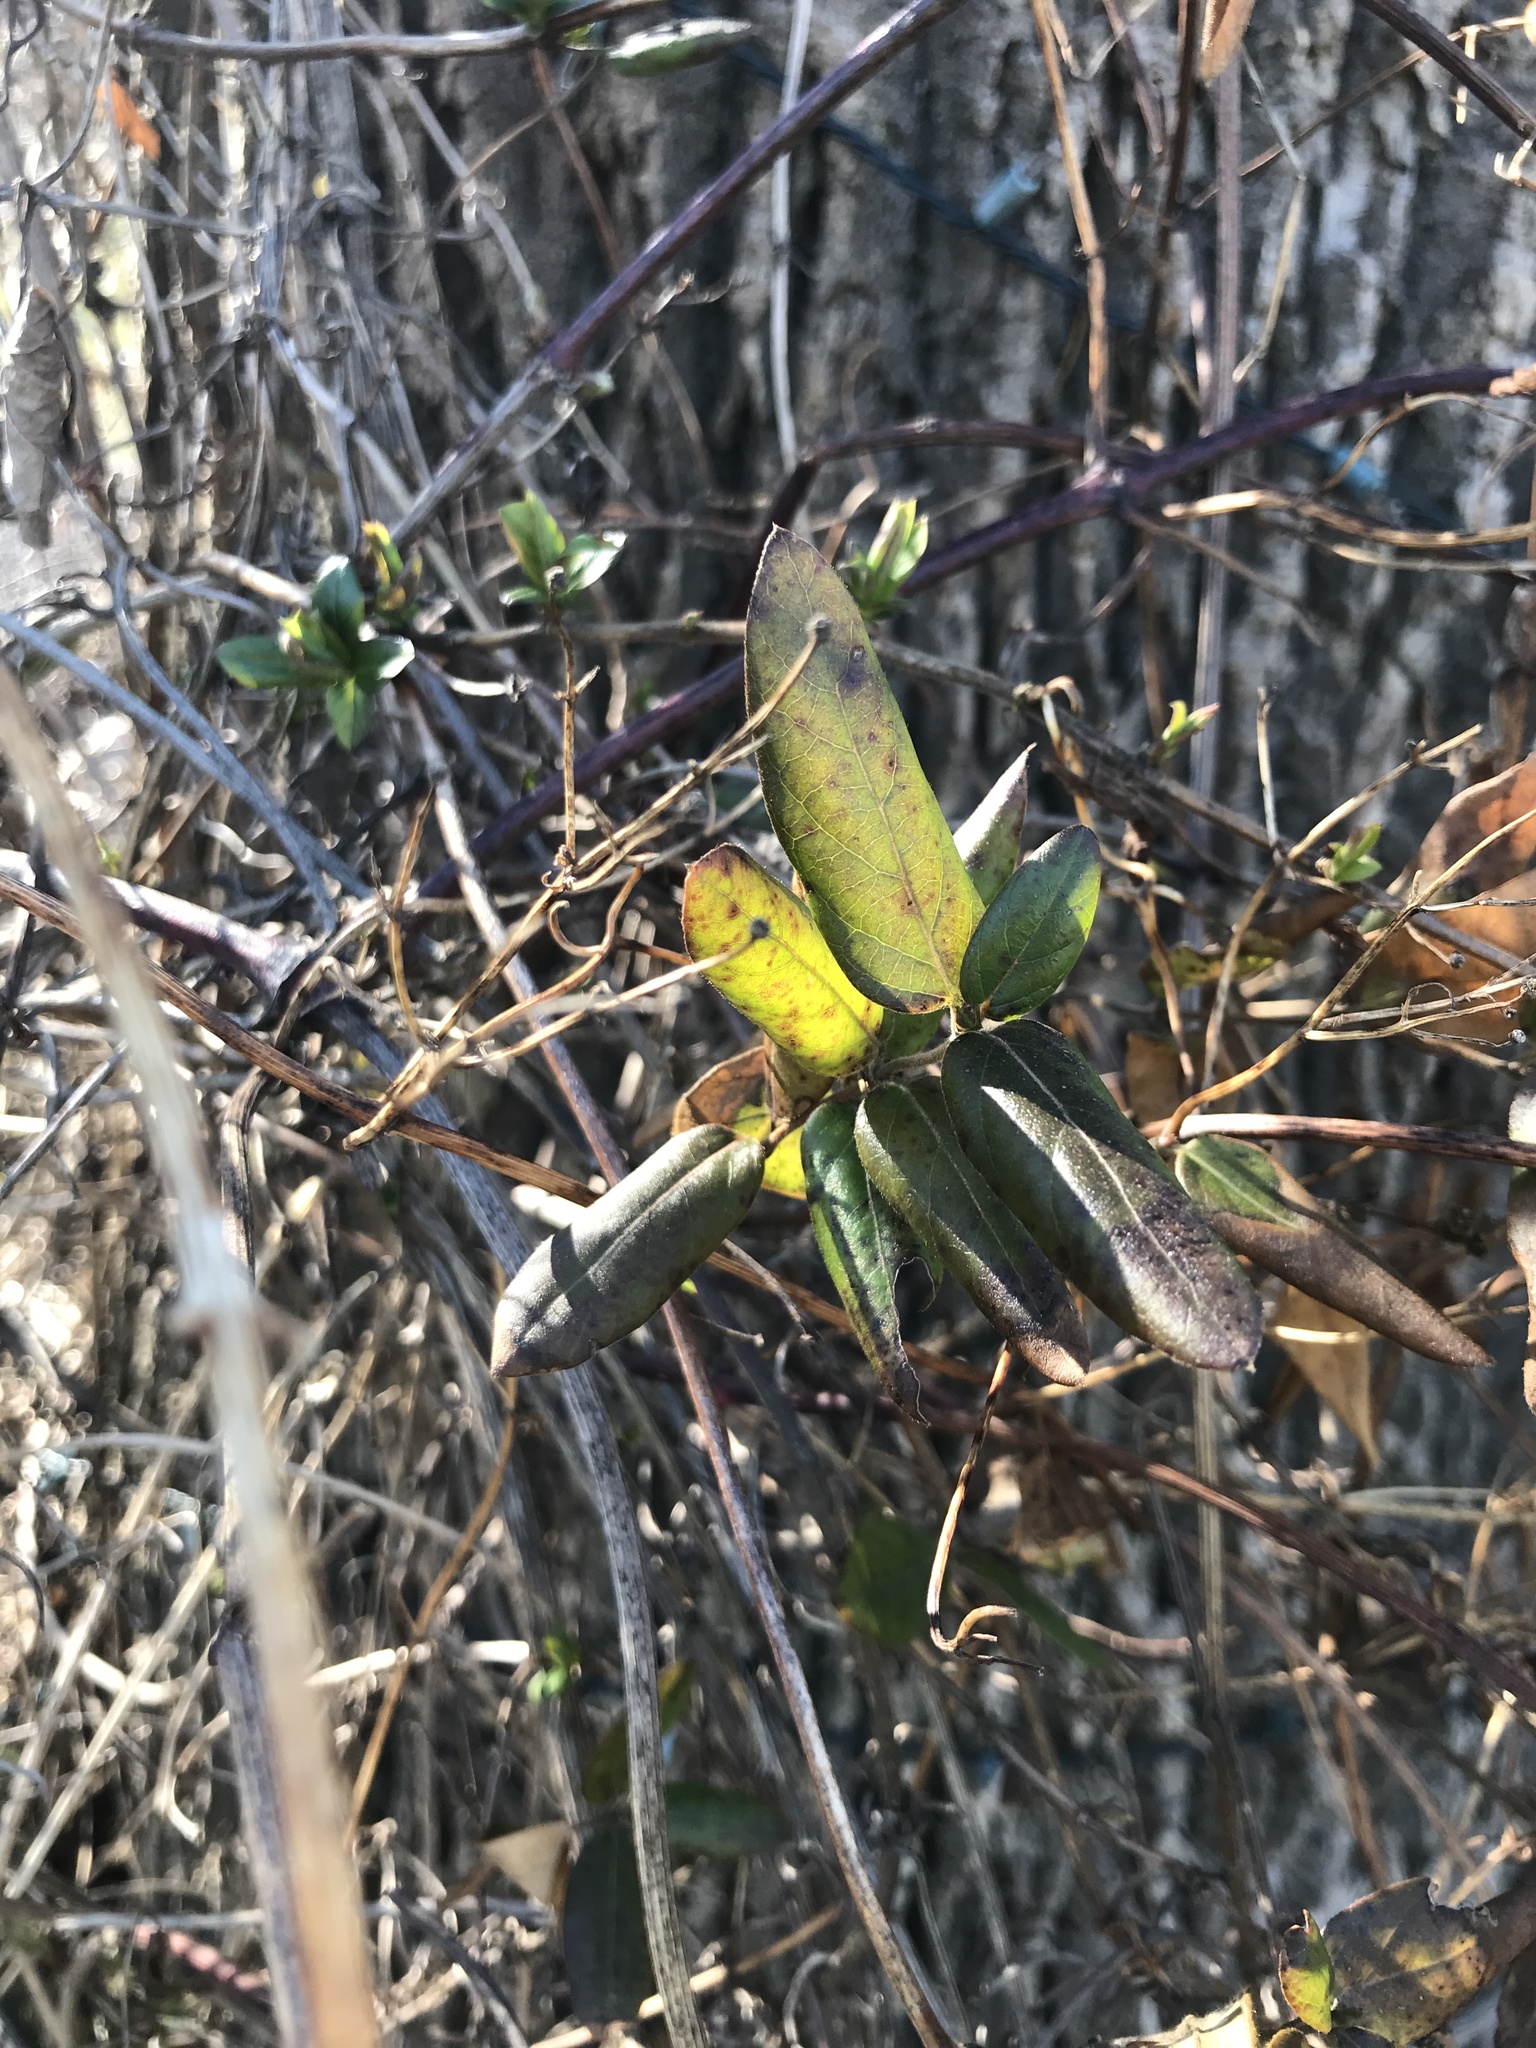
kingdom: Plantae
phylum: Tracheophyta
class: Magnoliopsida
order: Dipsacales
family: Caprifoliaceae
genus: Lonicera
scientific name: Lonicera japonica
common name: Japanese honeysuckle
